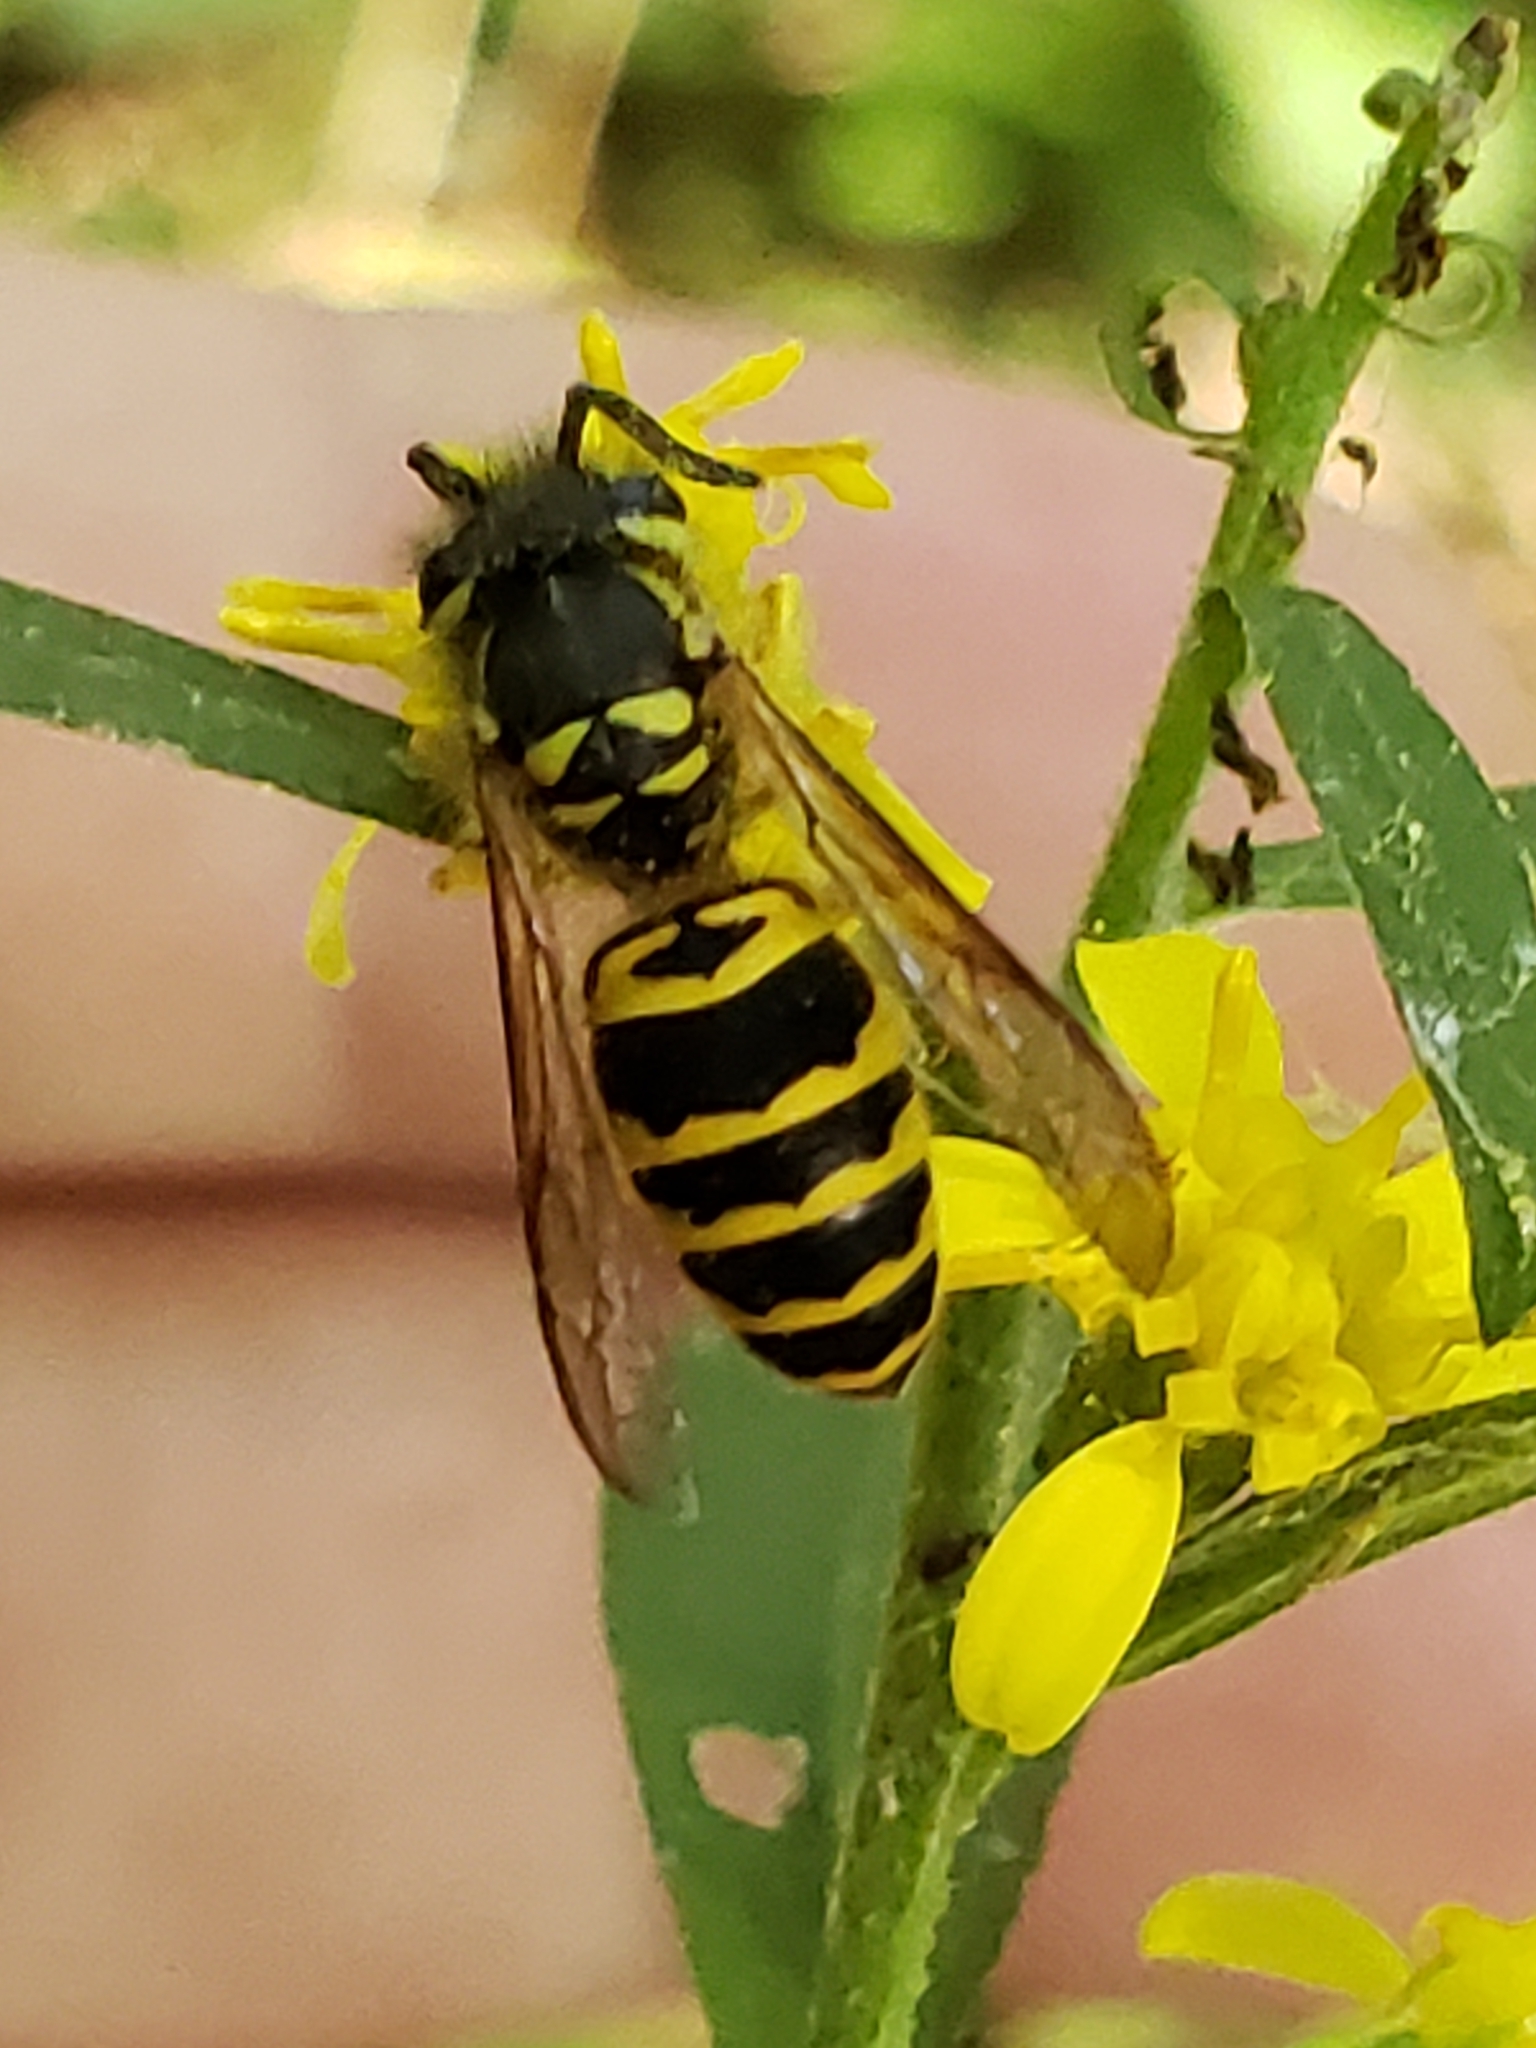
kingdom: Animalia
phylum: Arthropoda
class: Insecta
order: Hymenoptera
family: Vespidae
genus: Vespula
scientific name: Vespula maculifrons
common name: Eastern yellowjacket
